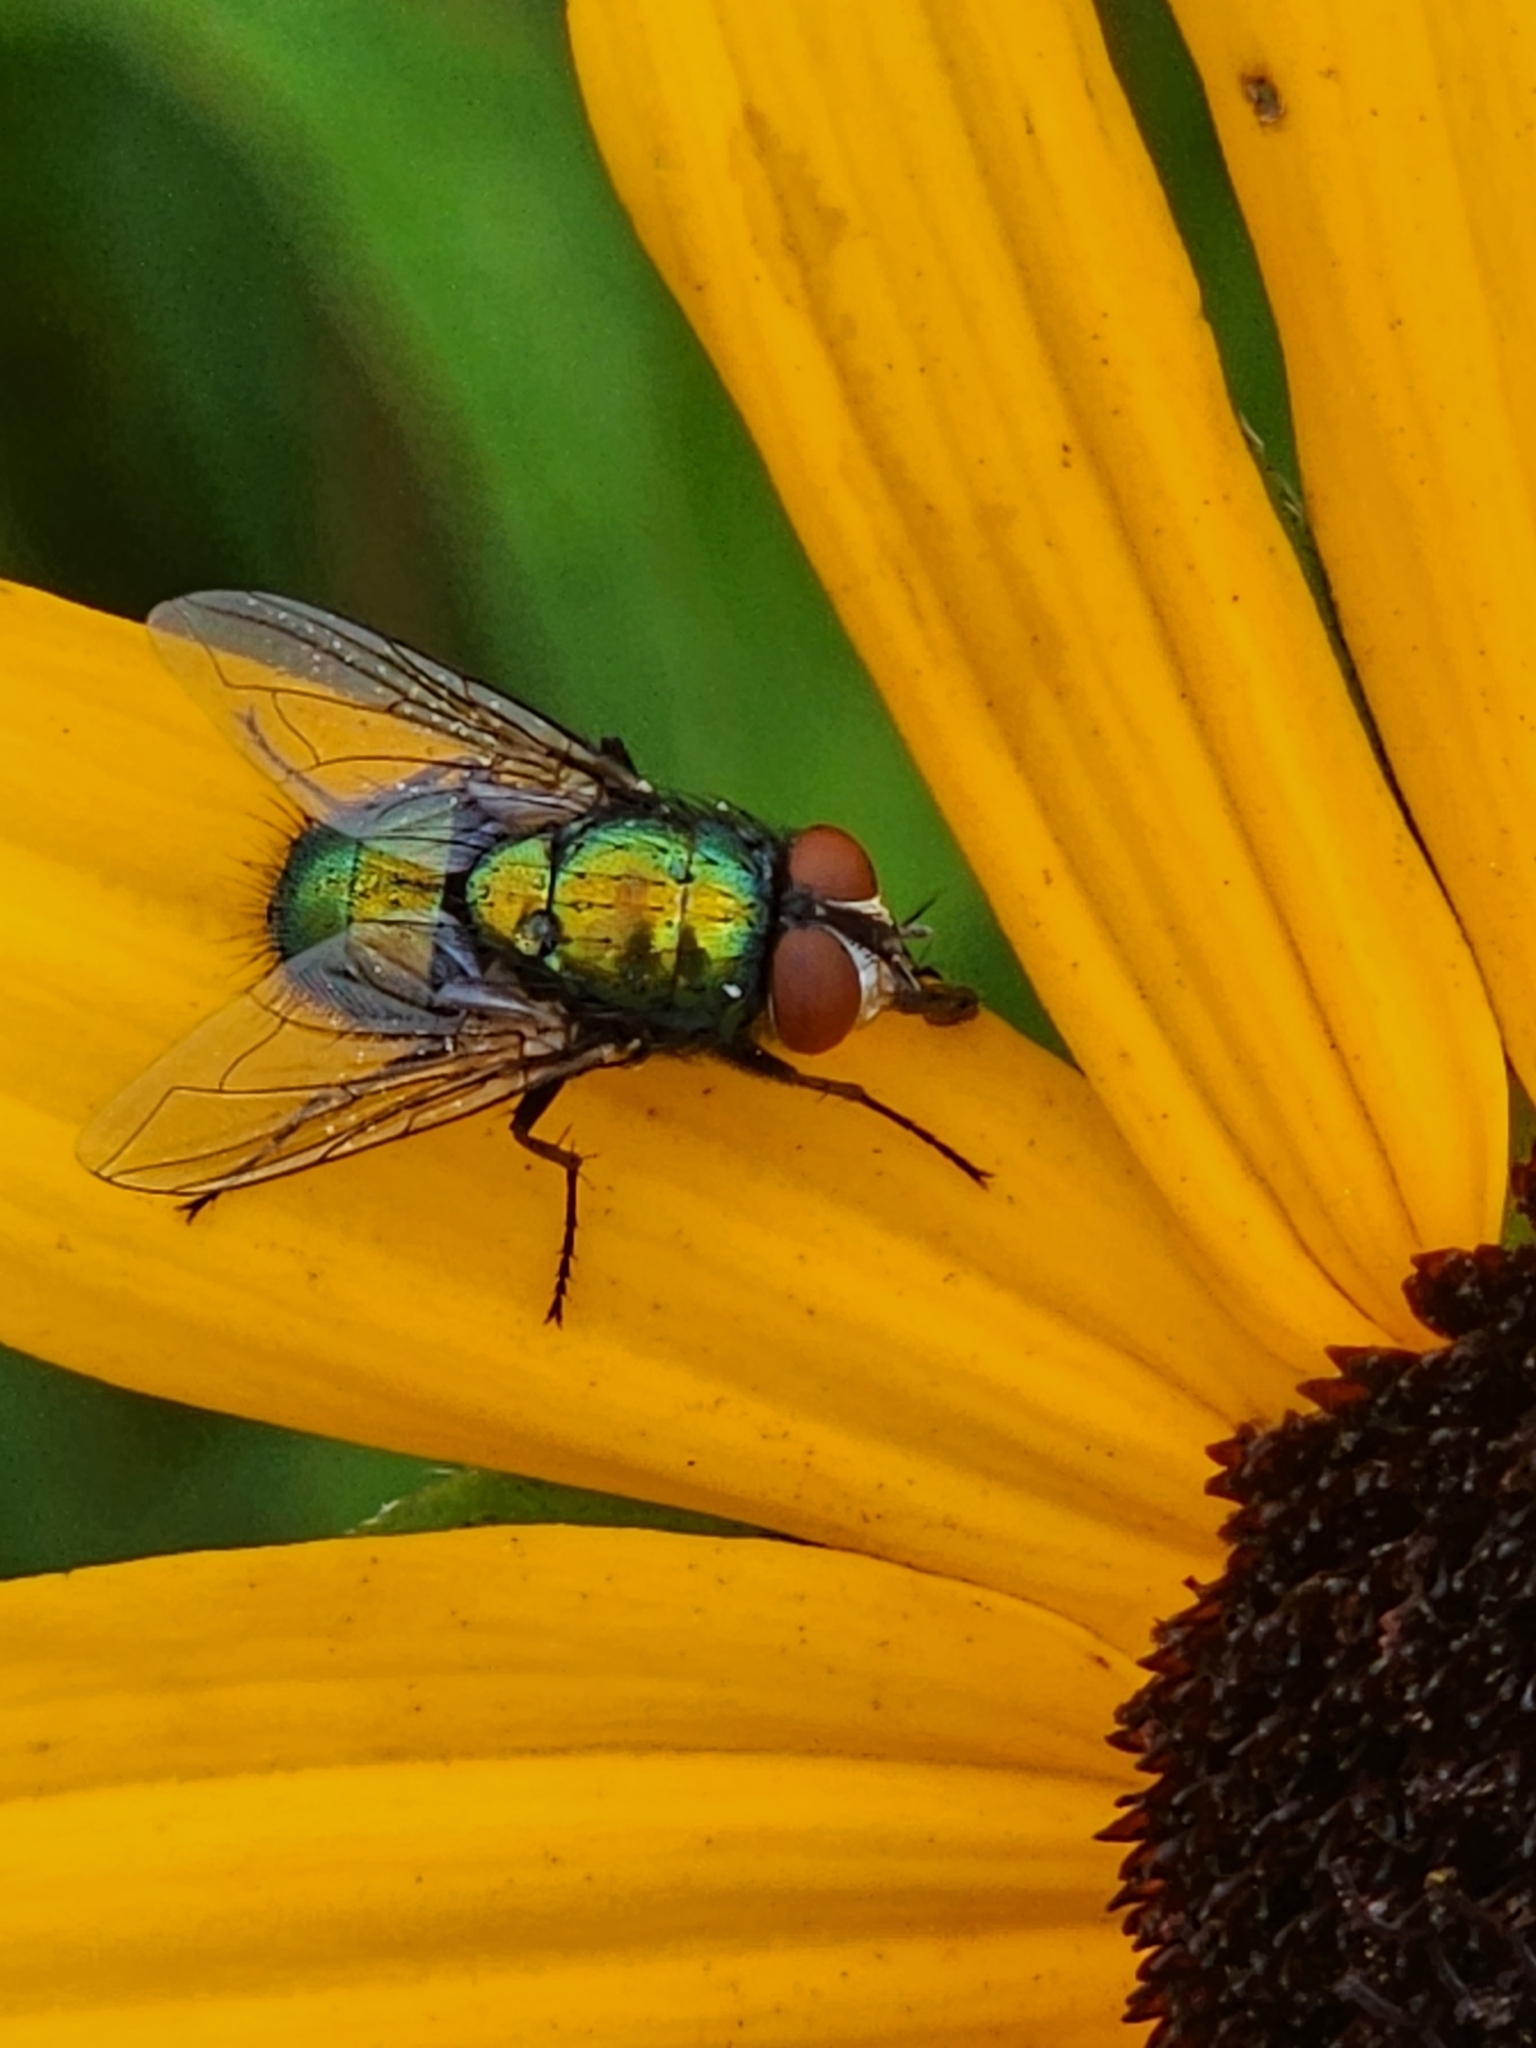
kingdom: Animalia
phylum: Arthropoda
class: Insecta
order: Diptera
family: Calliphoridae
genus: Lucilia
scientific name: Lucilia sericata
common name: Blow fly
